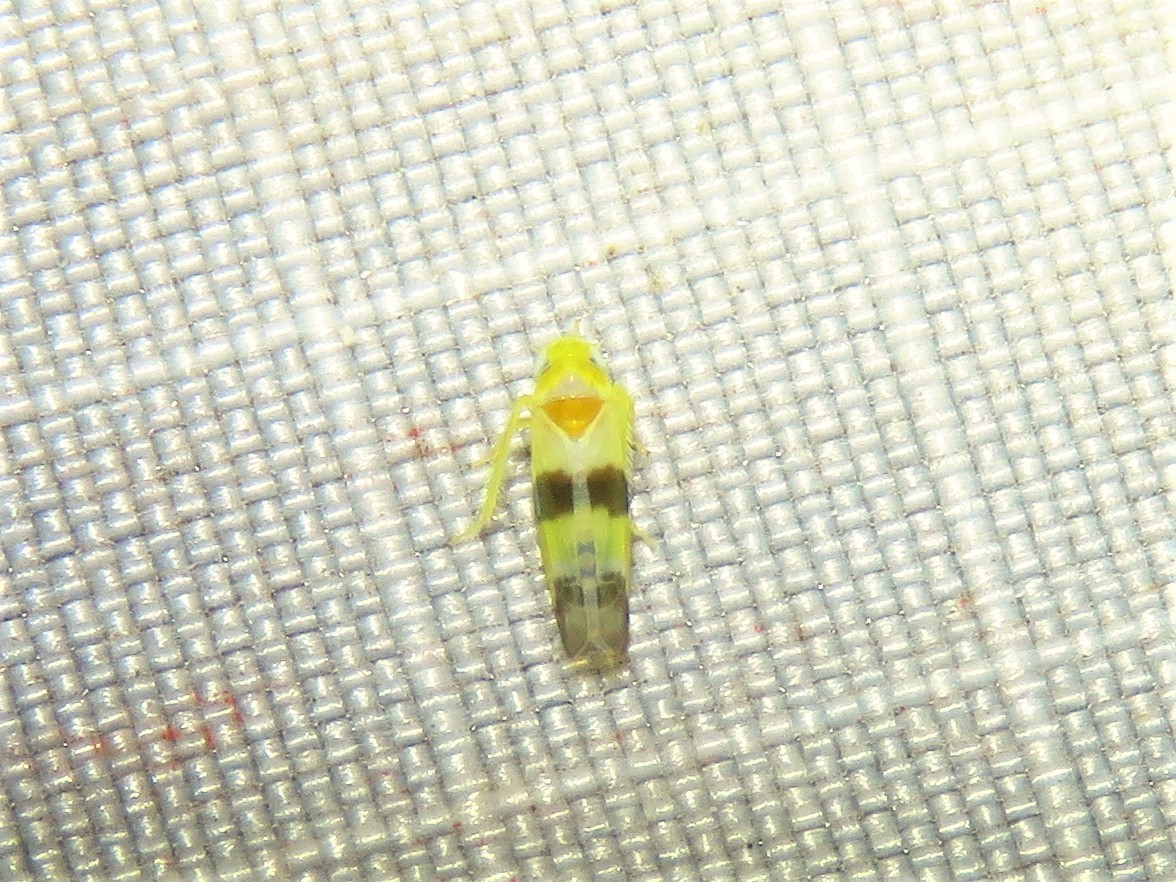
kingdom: Animalia
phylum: Arthropoda
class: Insecta
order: Hemiptera
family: Cicadellidae
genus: Empoa
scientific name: Empoa venusta
